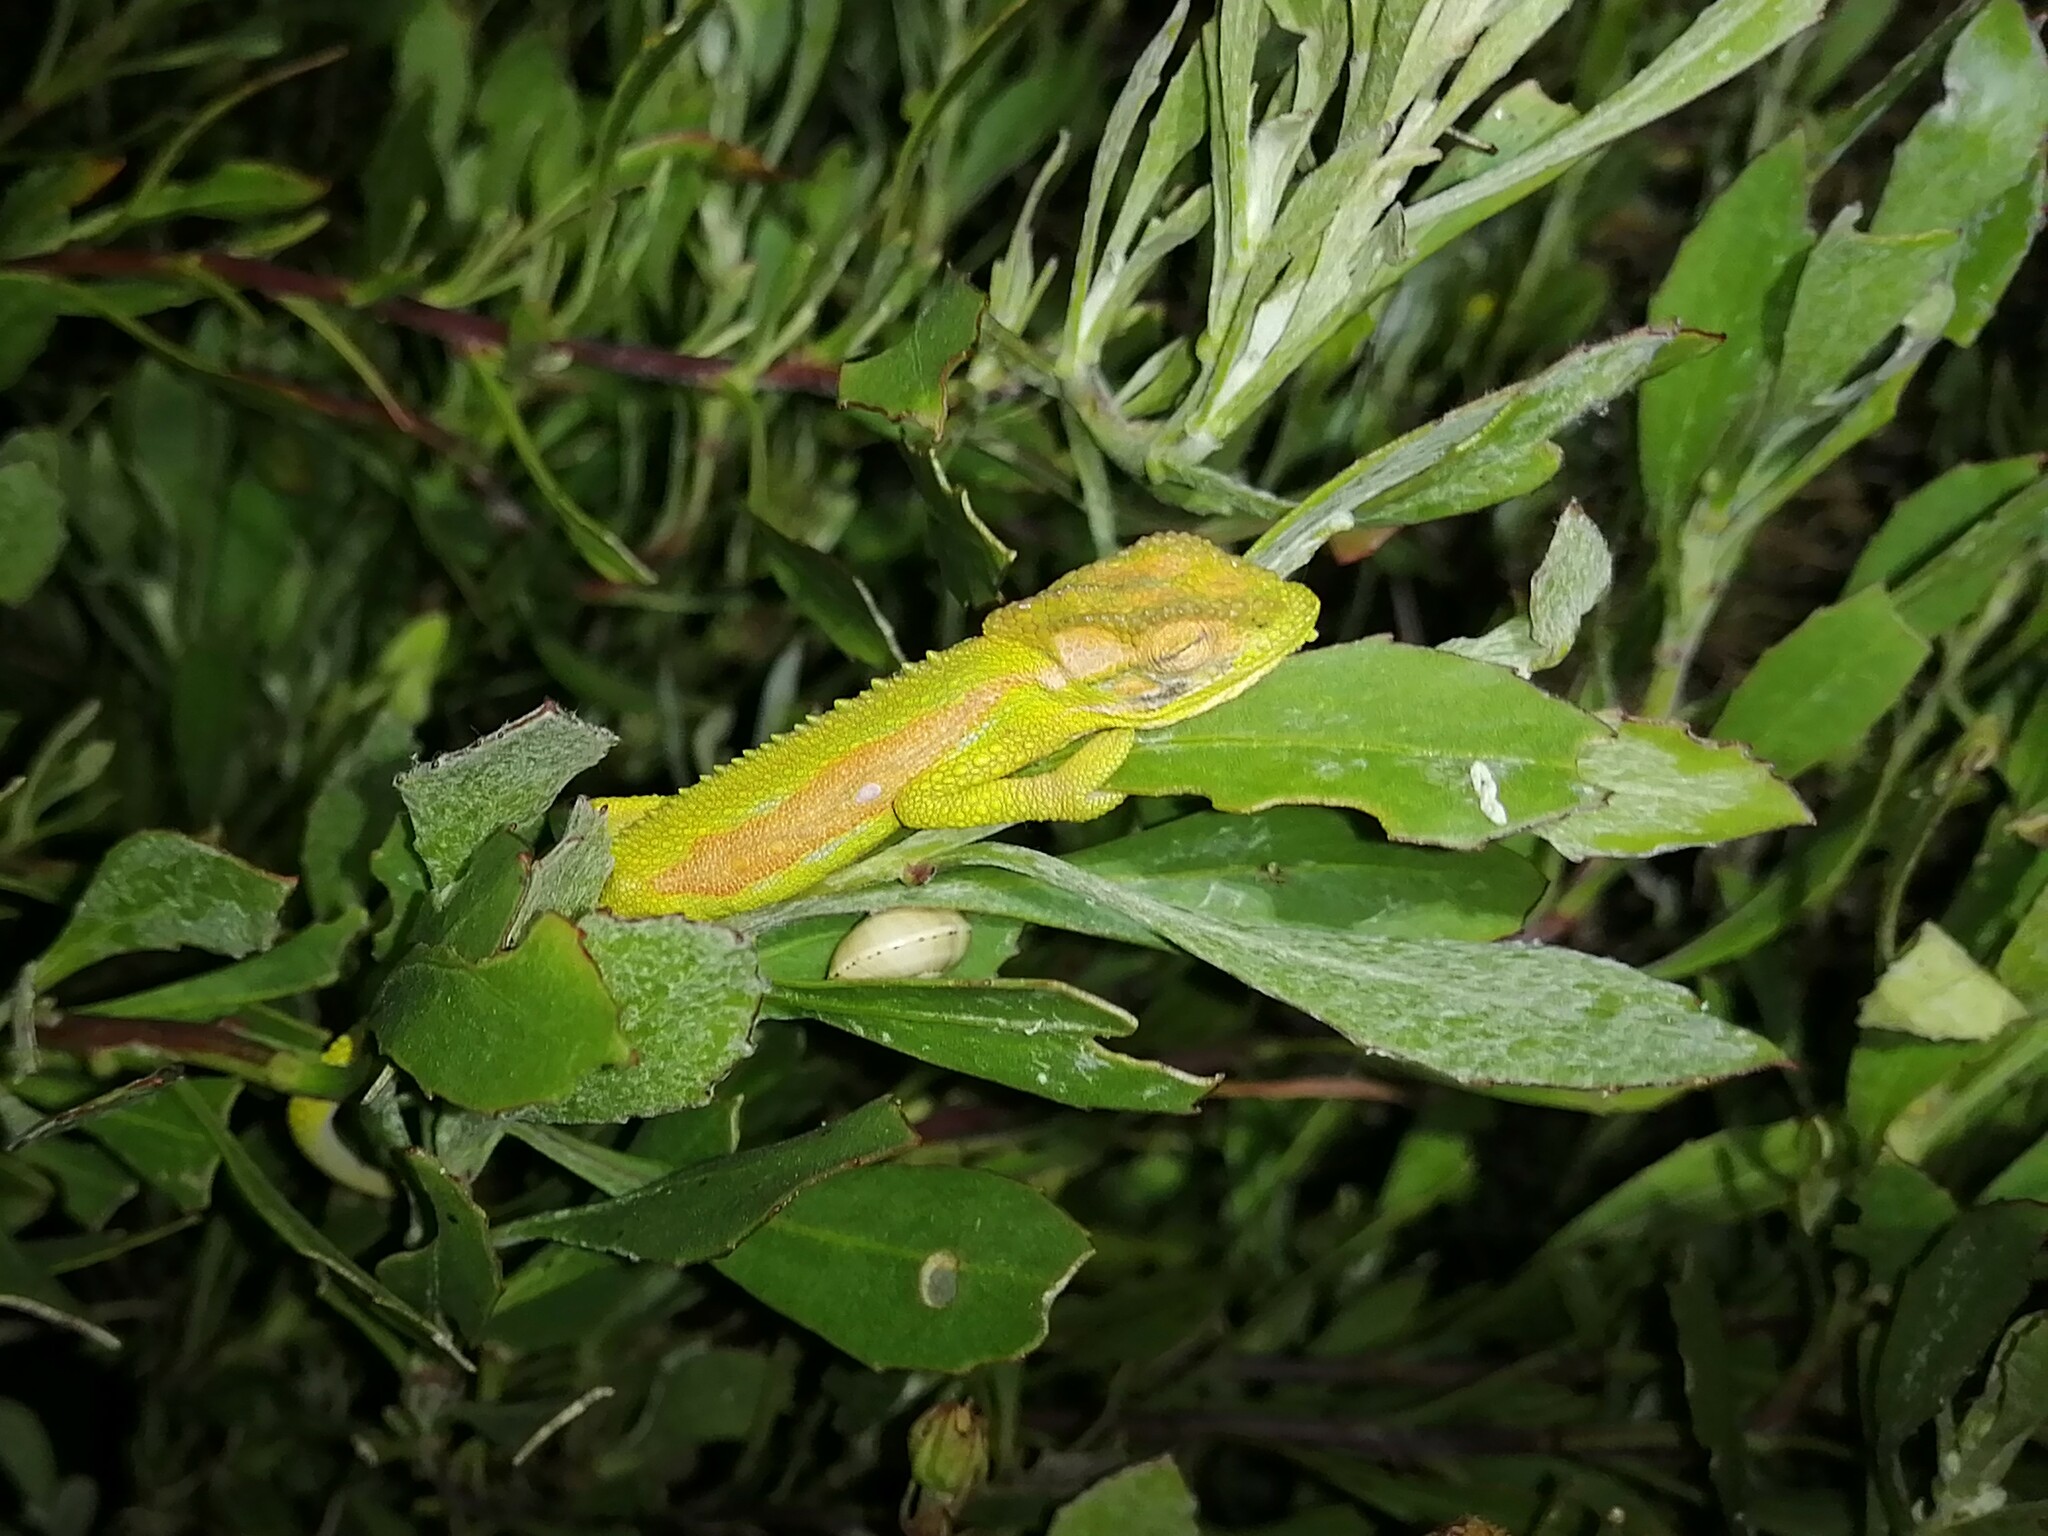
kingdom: Animalia
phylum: Chordata
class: Squamata
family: Chamaeleonidae
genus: Bradypodion
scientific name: Bradypodion pumilum
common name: Cape dwarf chameleon
